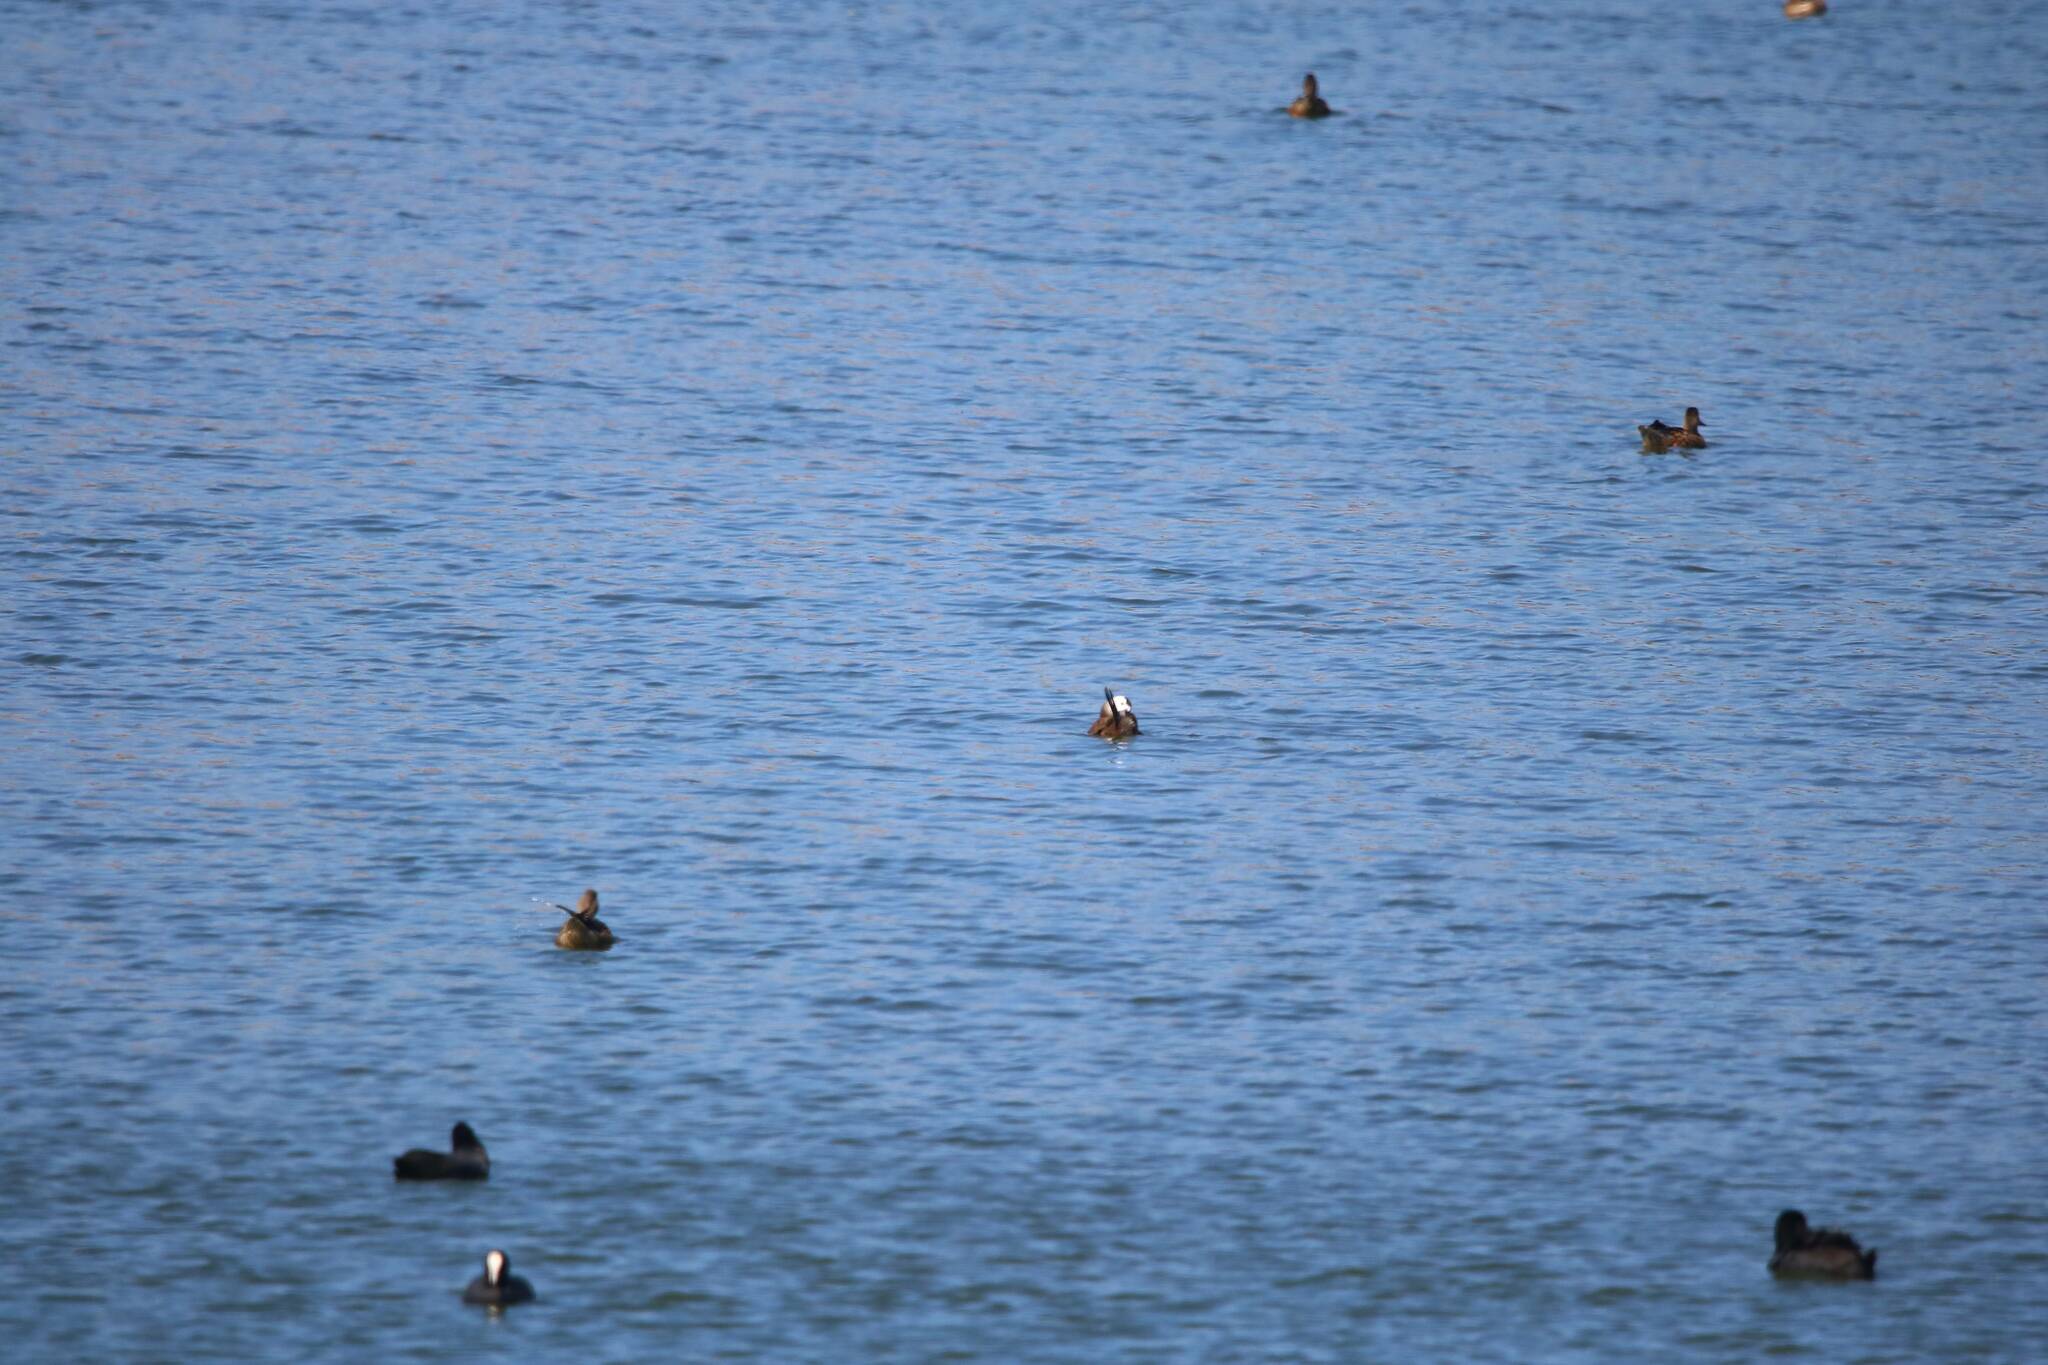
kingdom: Animalia
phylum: Chordata
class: Aves
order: Anseriformes
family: Anatidae
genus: Oxyura
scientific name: Oxyura leucocephala
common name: White-headed duck
